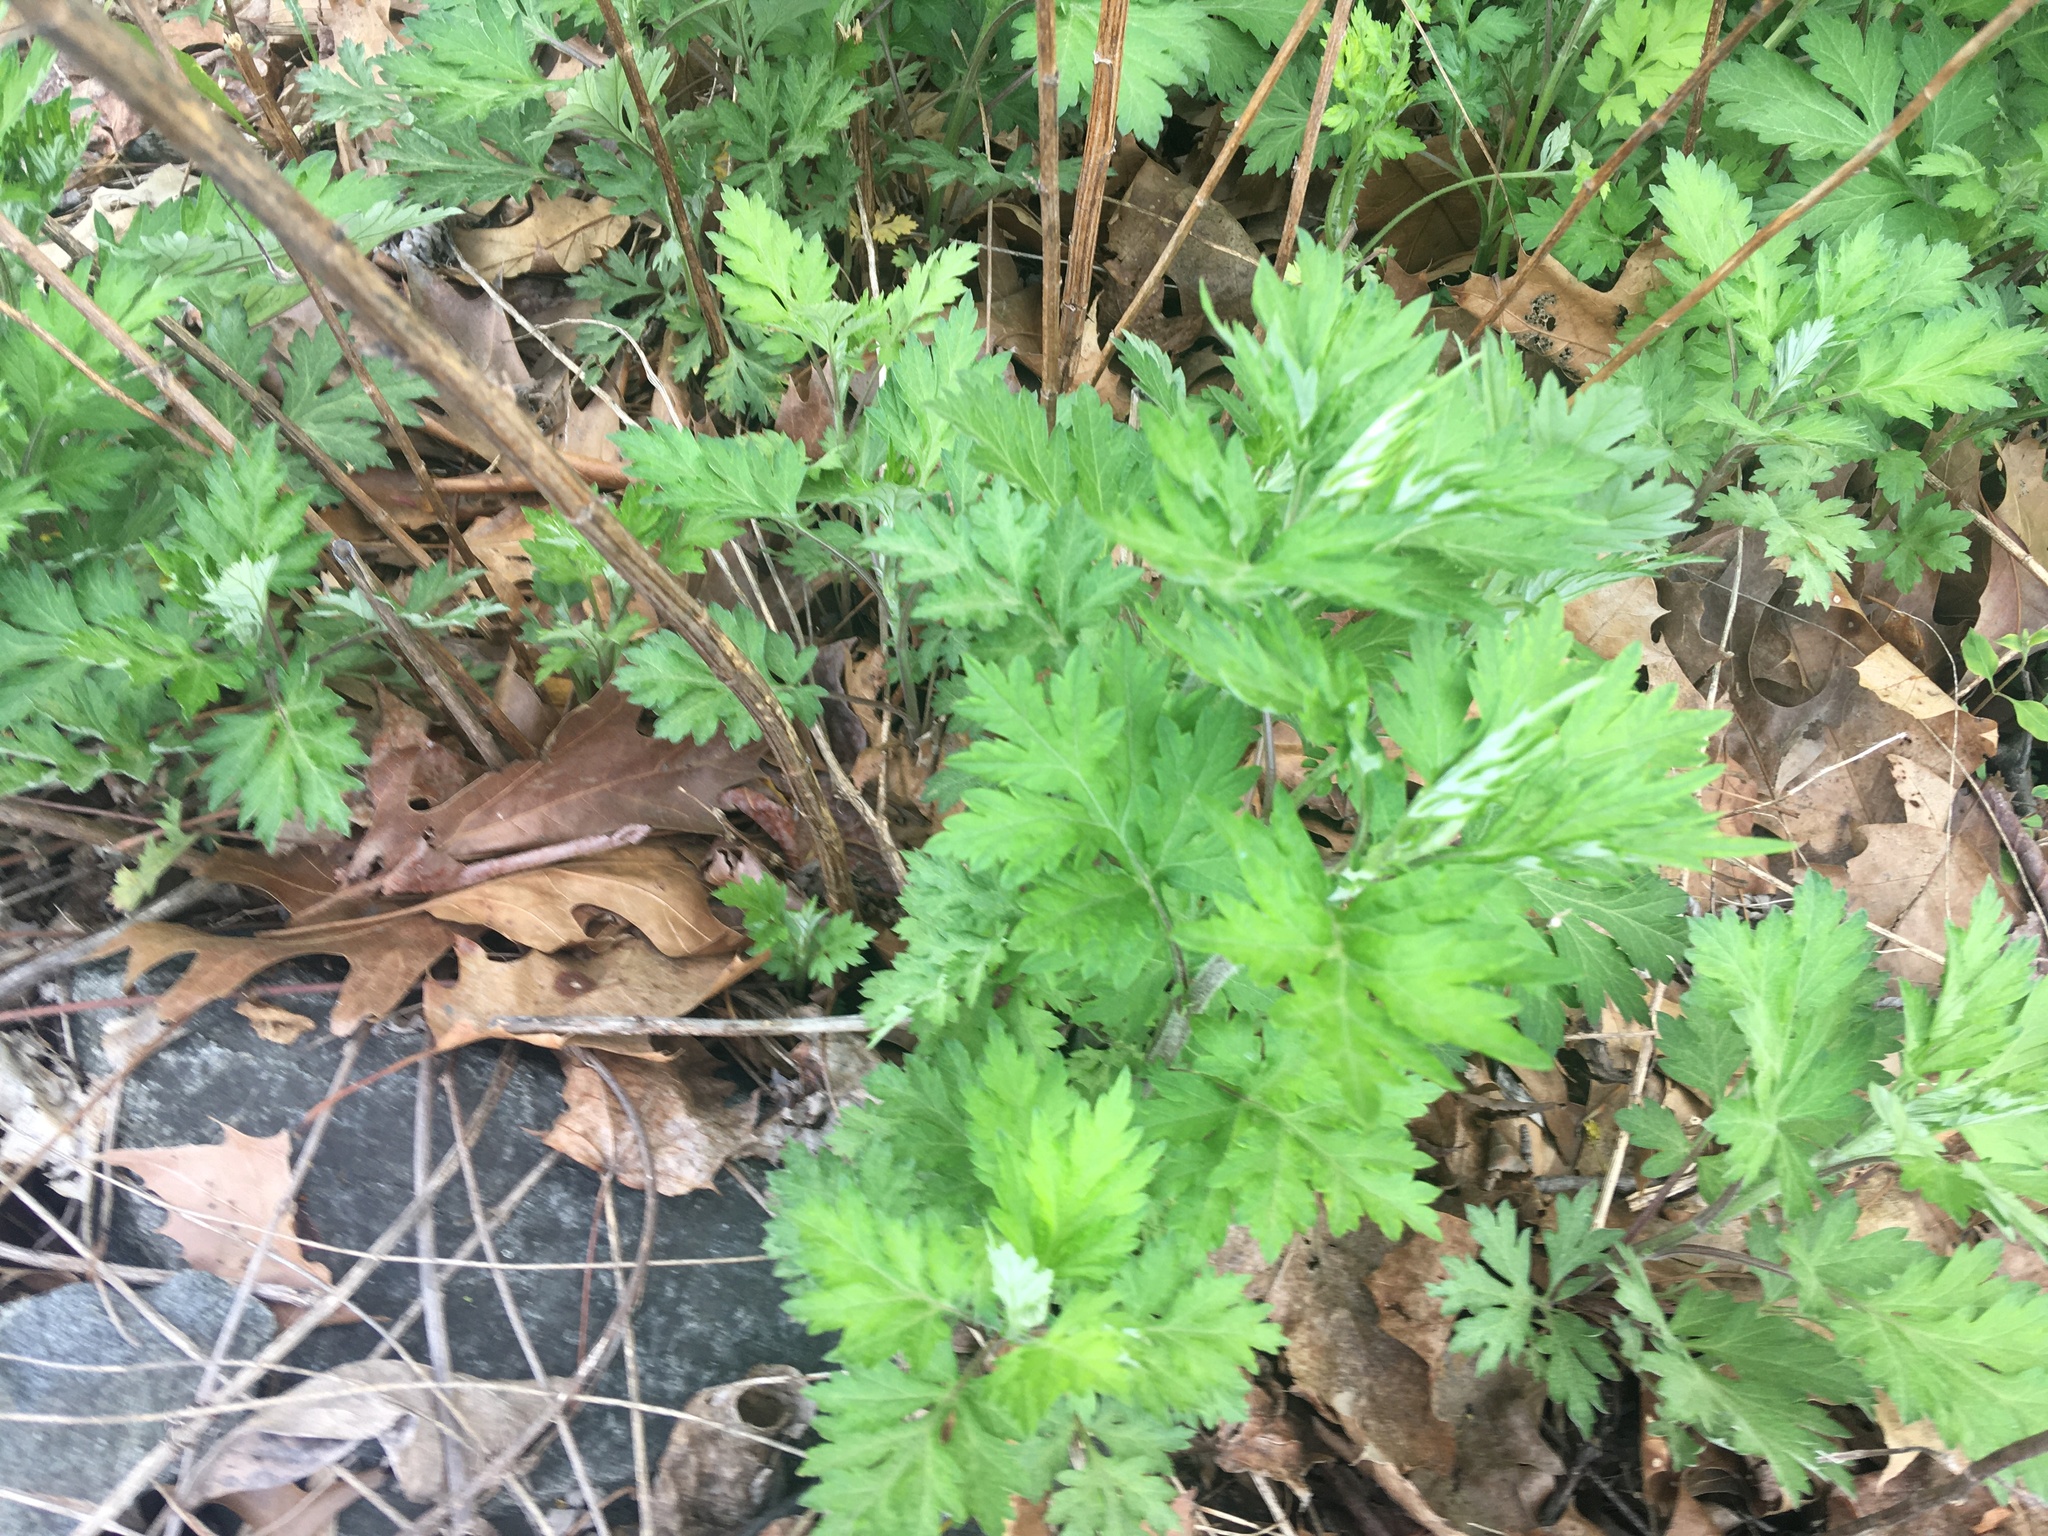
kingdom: Plantae
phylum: Tracheophyta
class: Magnoliopsida
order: Asterales
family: Asteraceae
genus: Artemisia
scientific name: Artemisia vulgaris
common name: Mugwort
